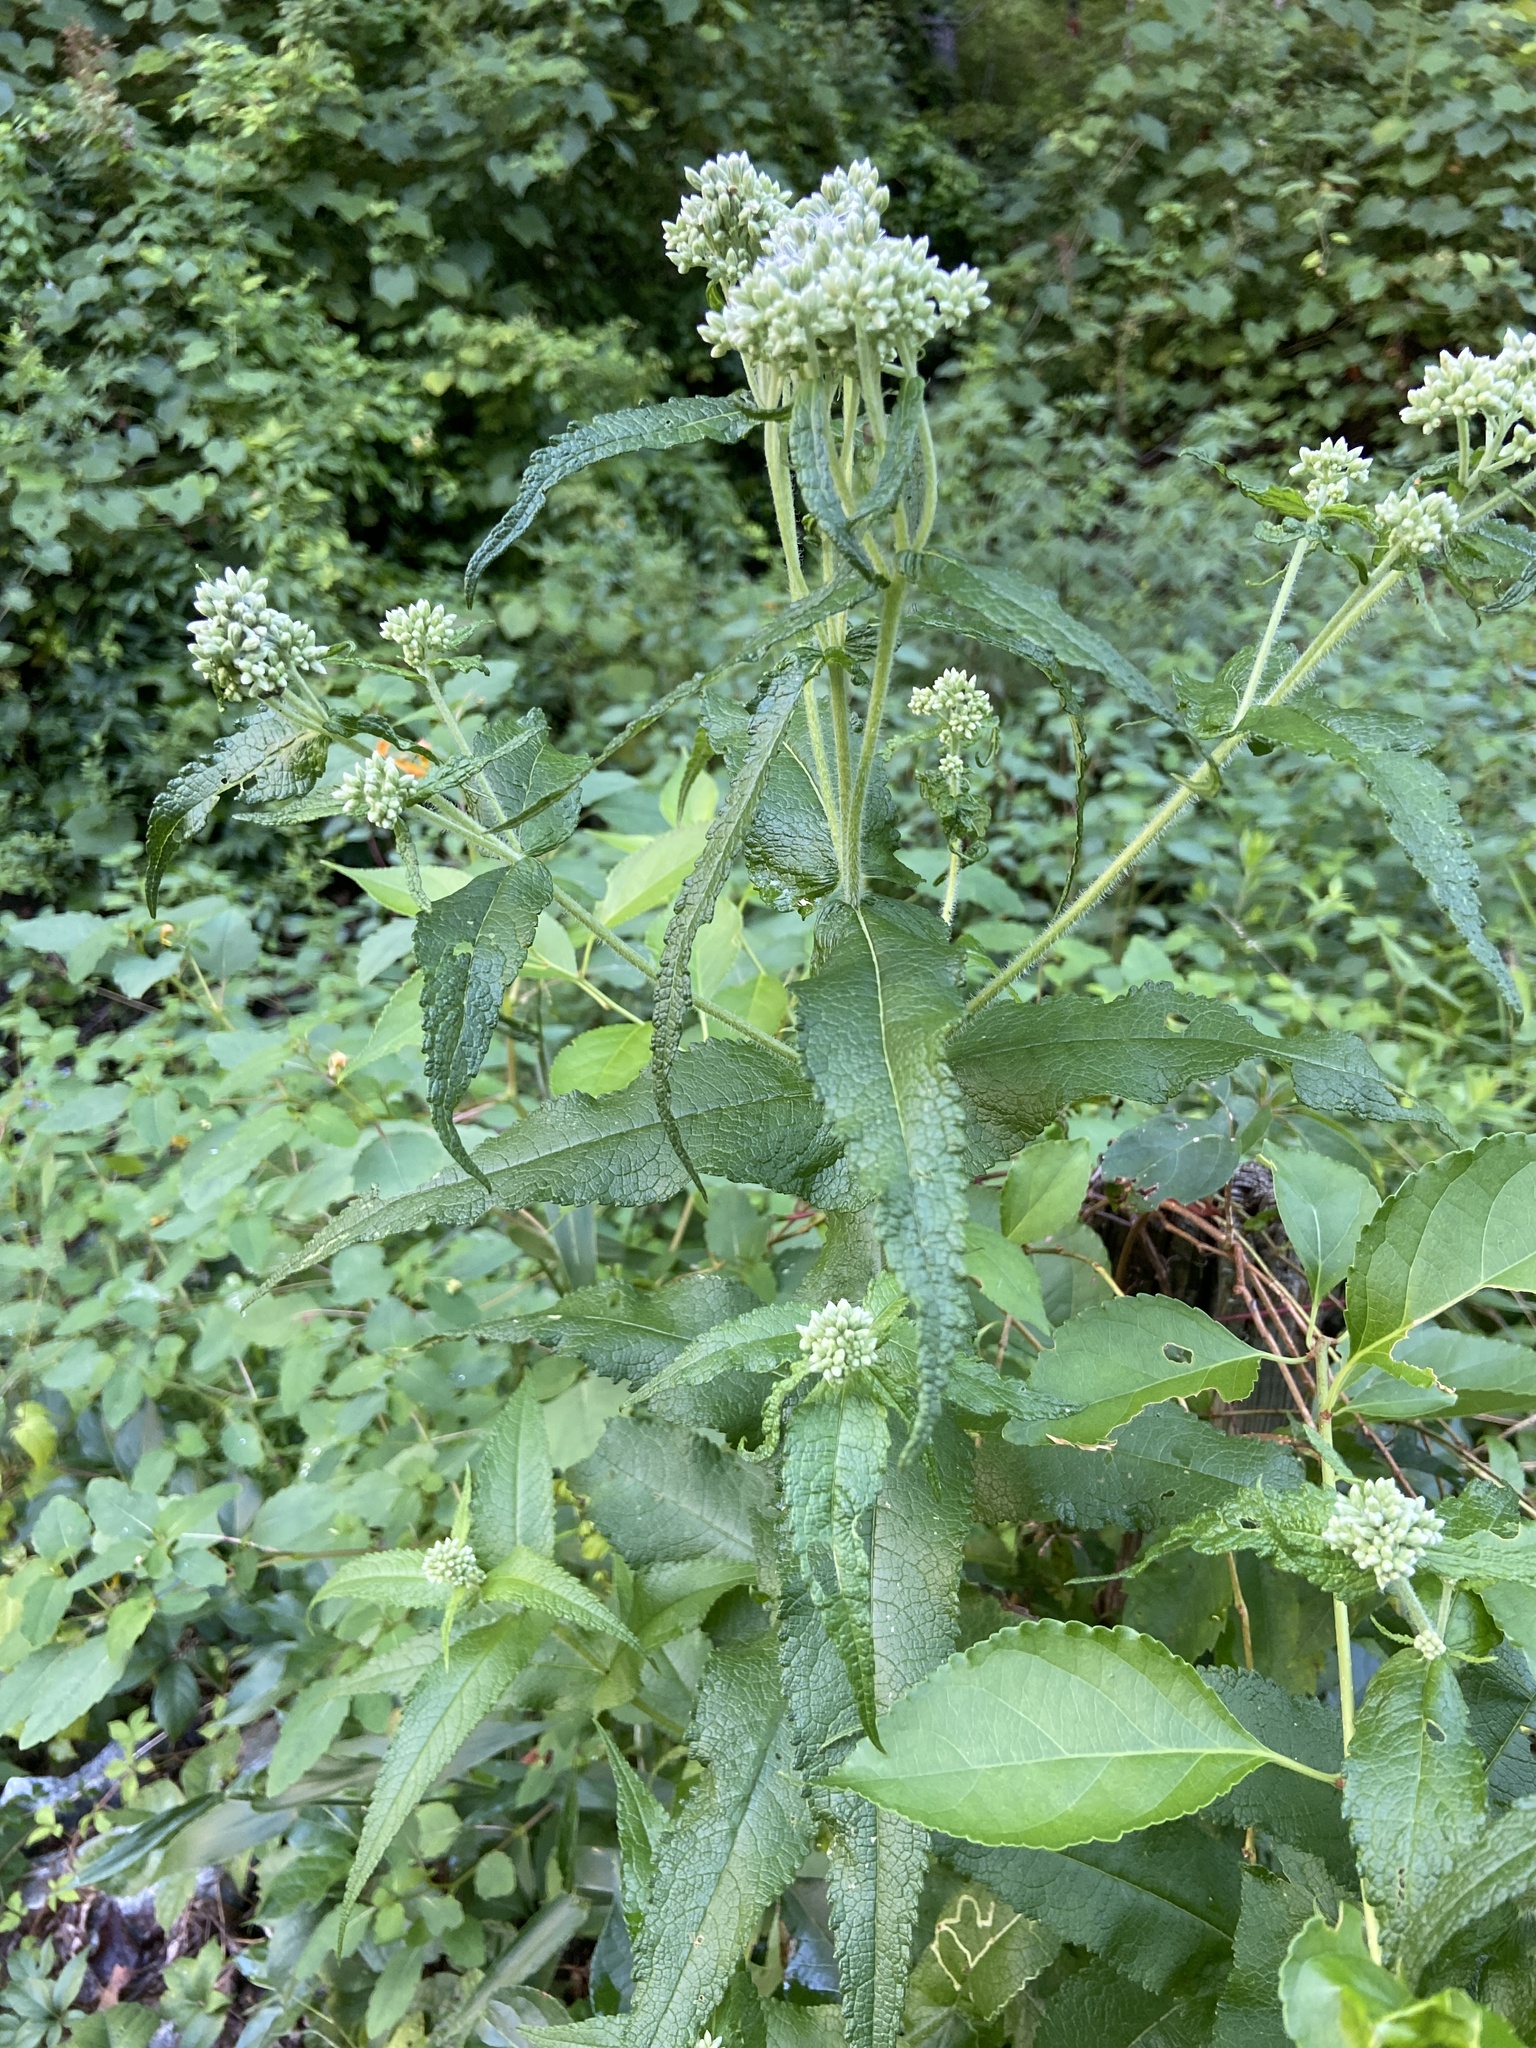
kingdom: Plantae
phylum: Tracheophyta
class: Magnoliopsida
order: Asterales
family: Asteraceae
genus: Eupatorium
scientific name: Eupatorium perfoliatum
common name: Boneset
